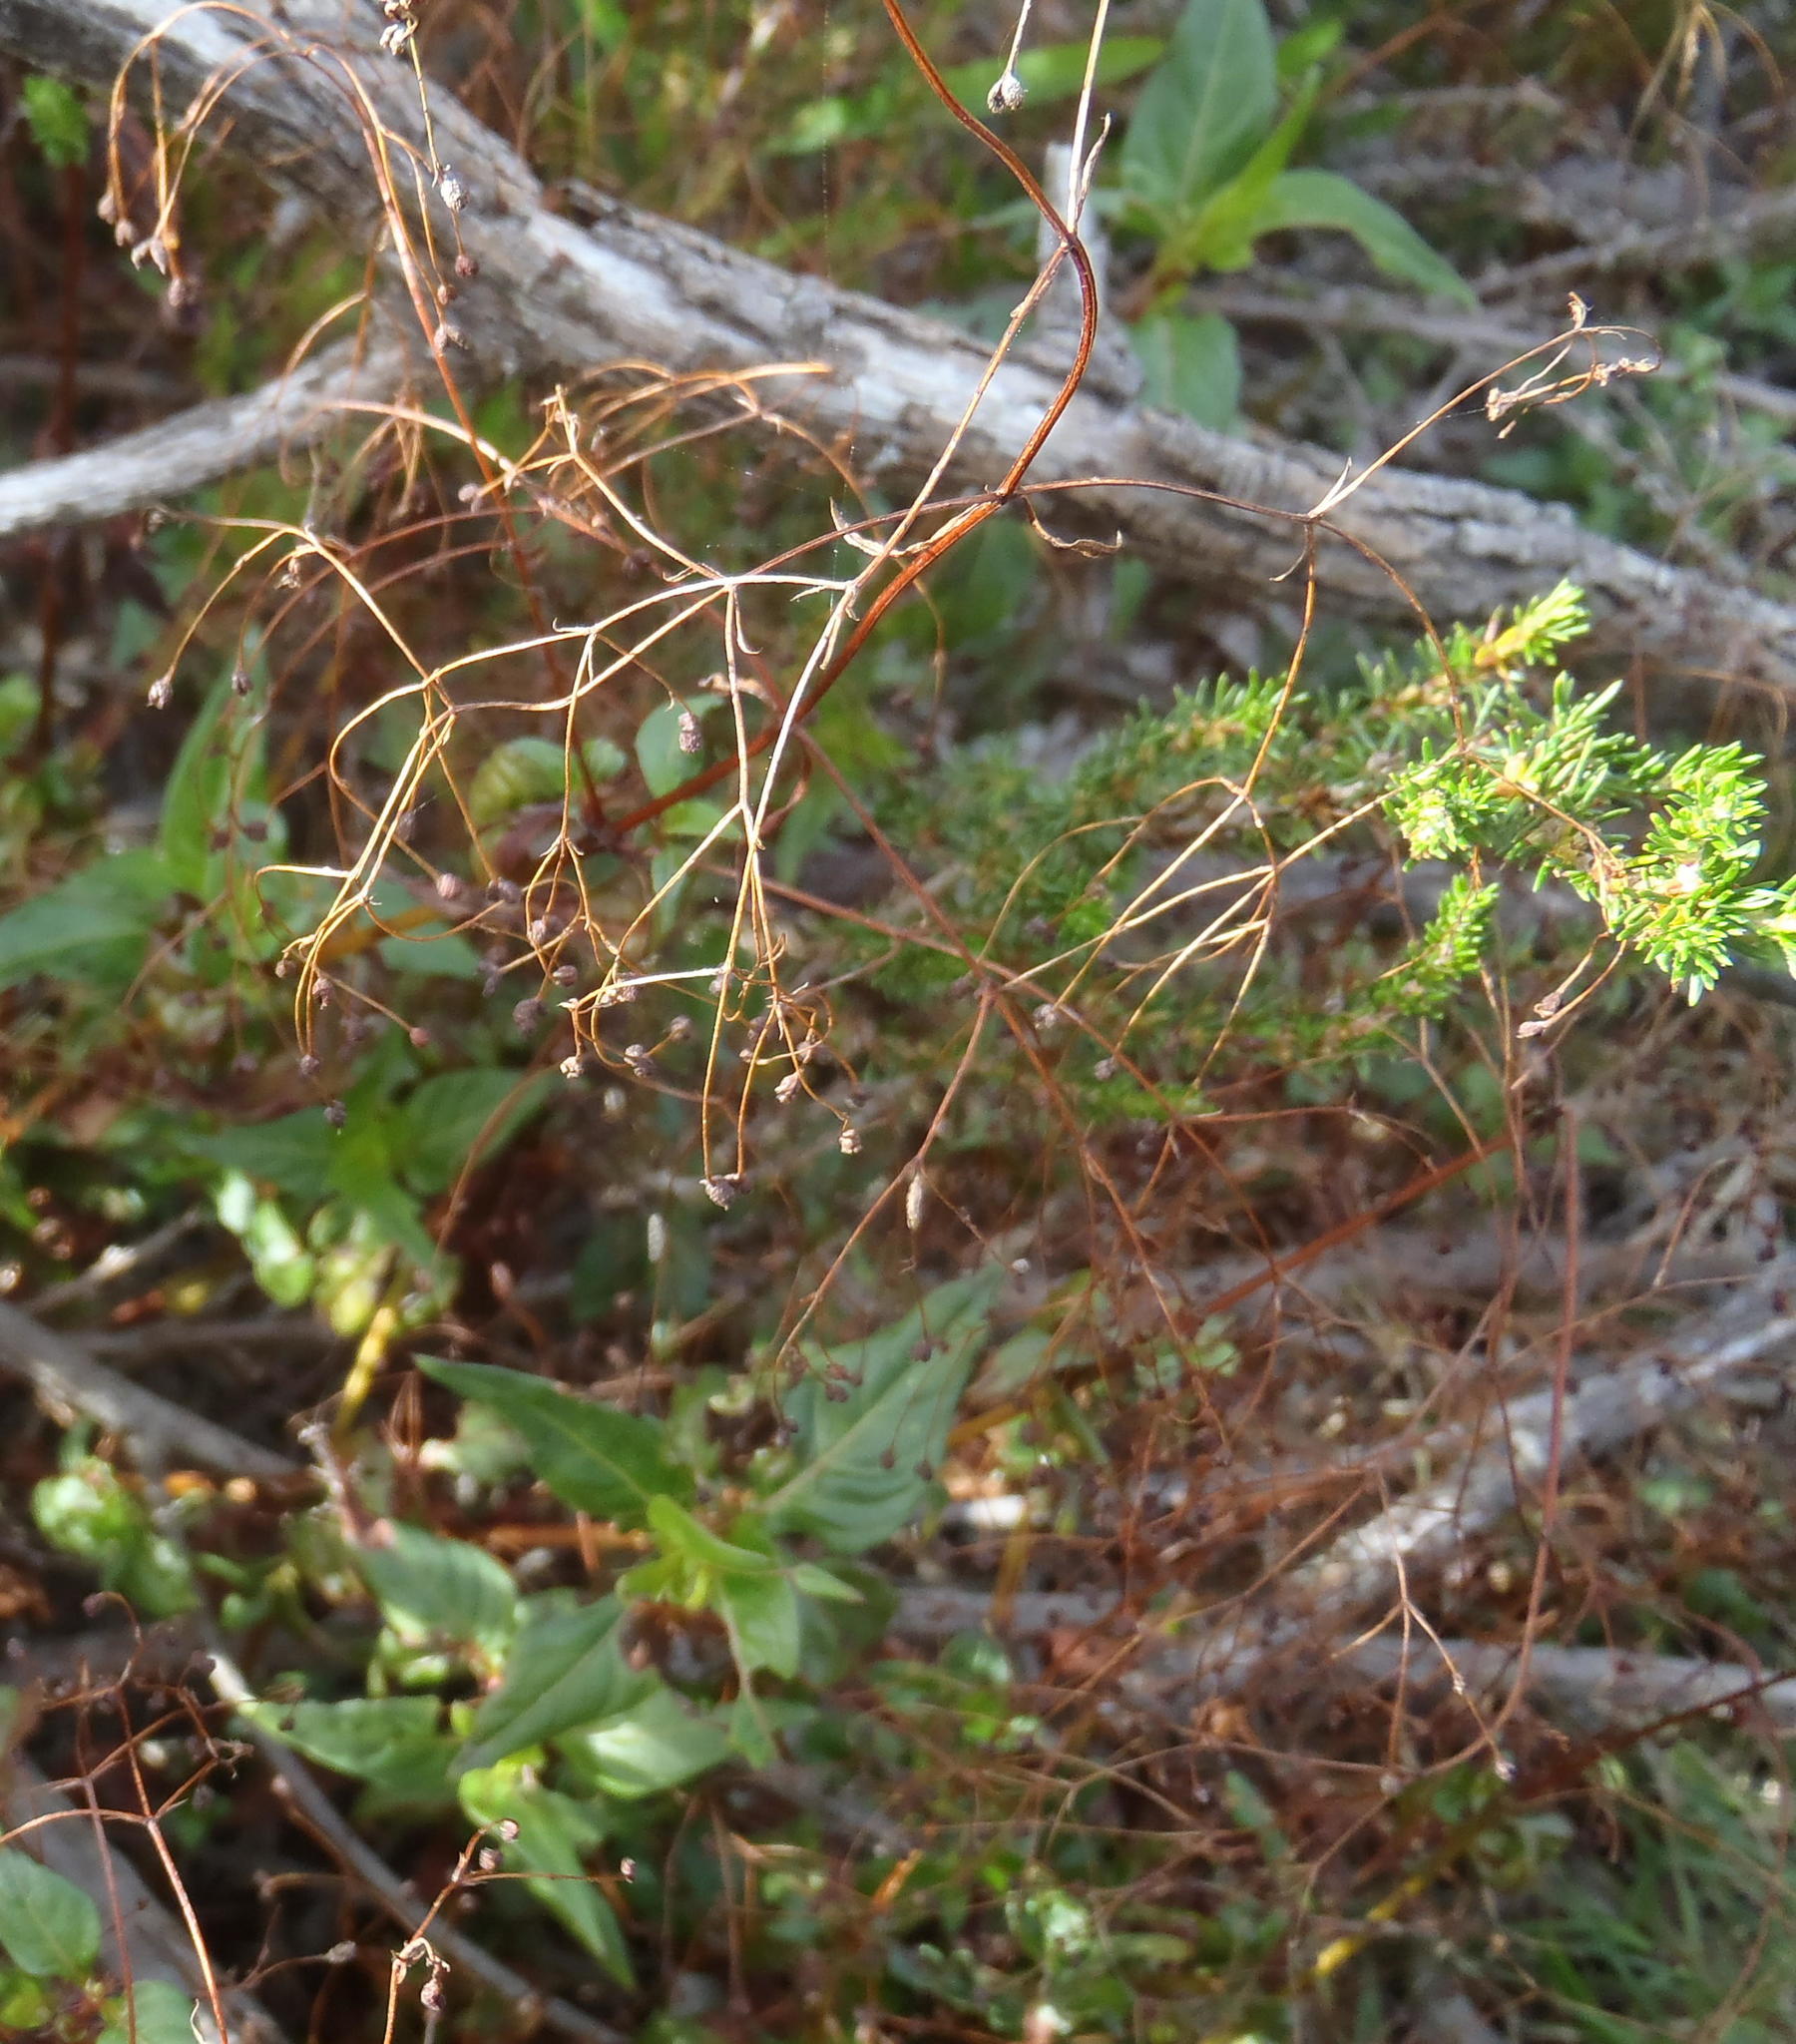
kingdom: Plantae
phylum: Tracheophyta
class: Magnoliopsida
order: Gentianales
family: Rubiaceae
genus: Galopina
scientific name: Galopina circaeoides
